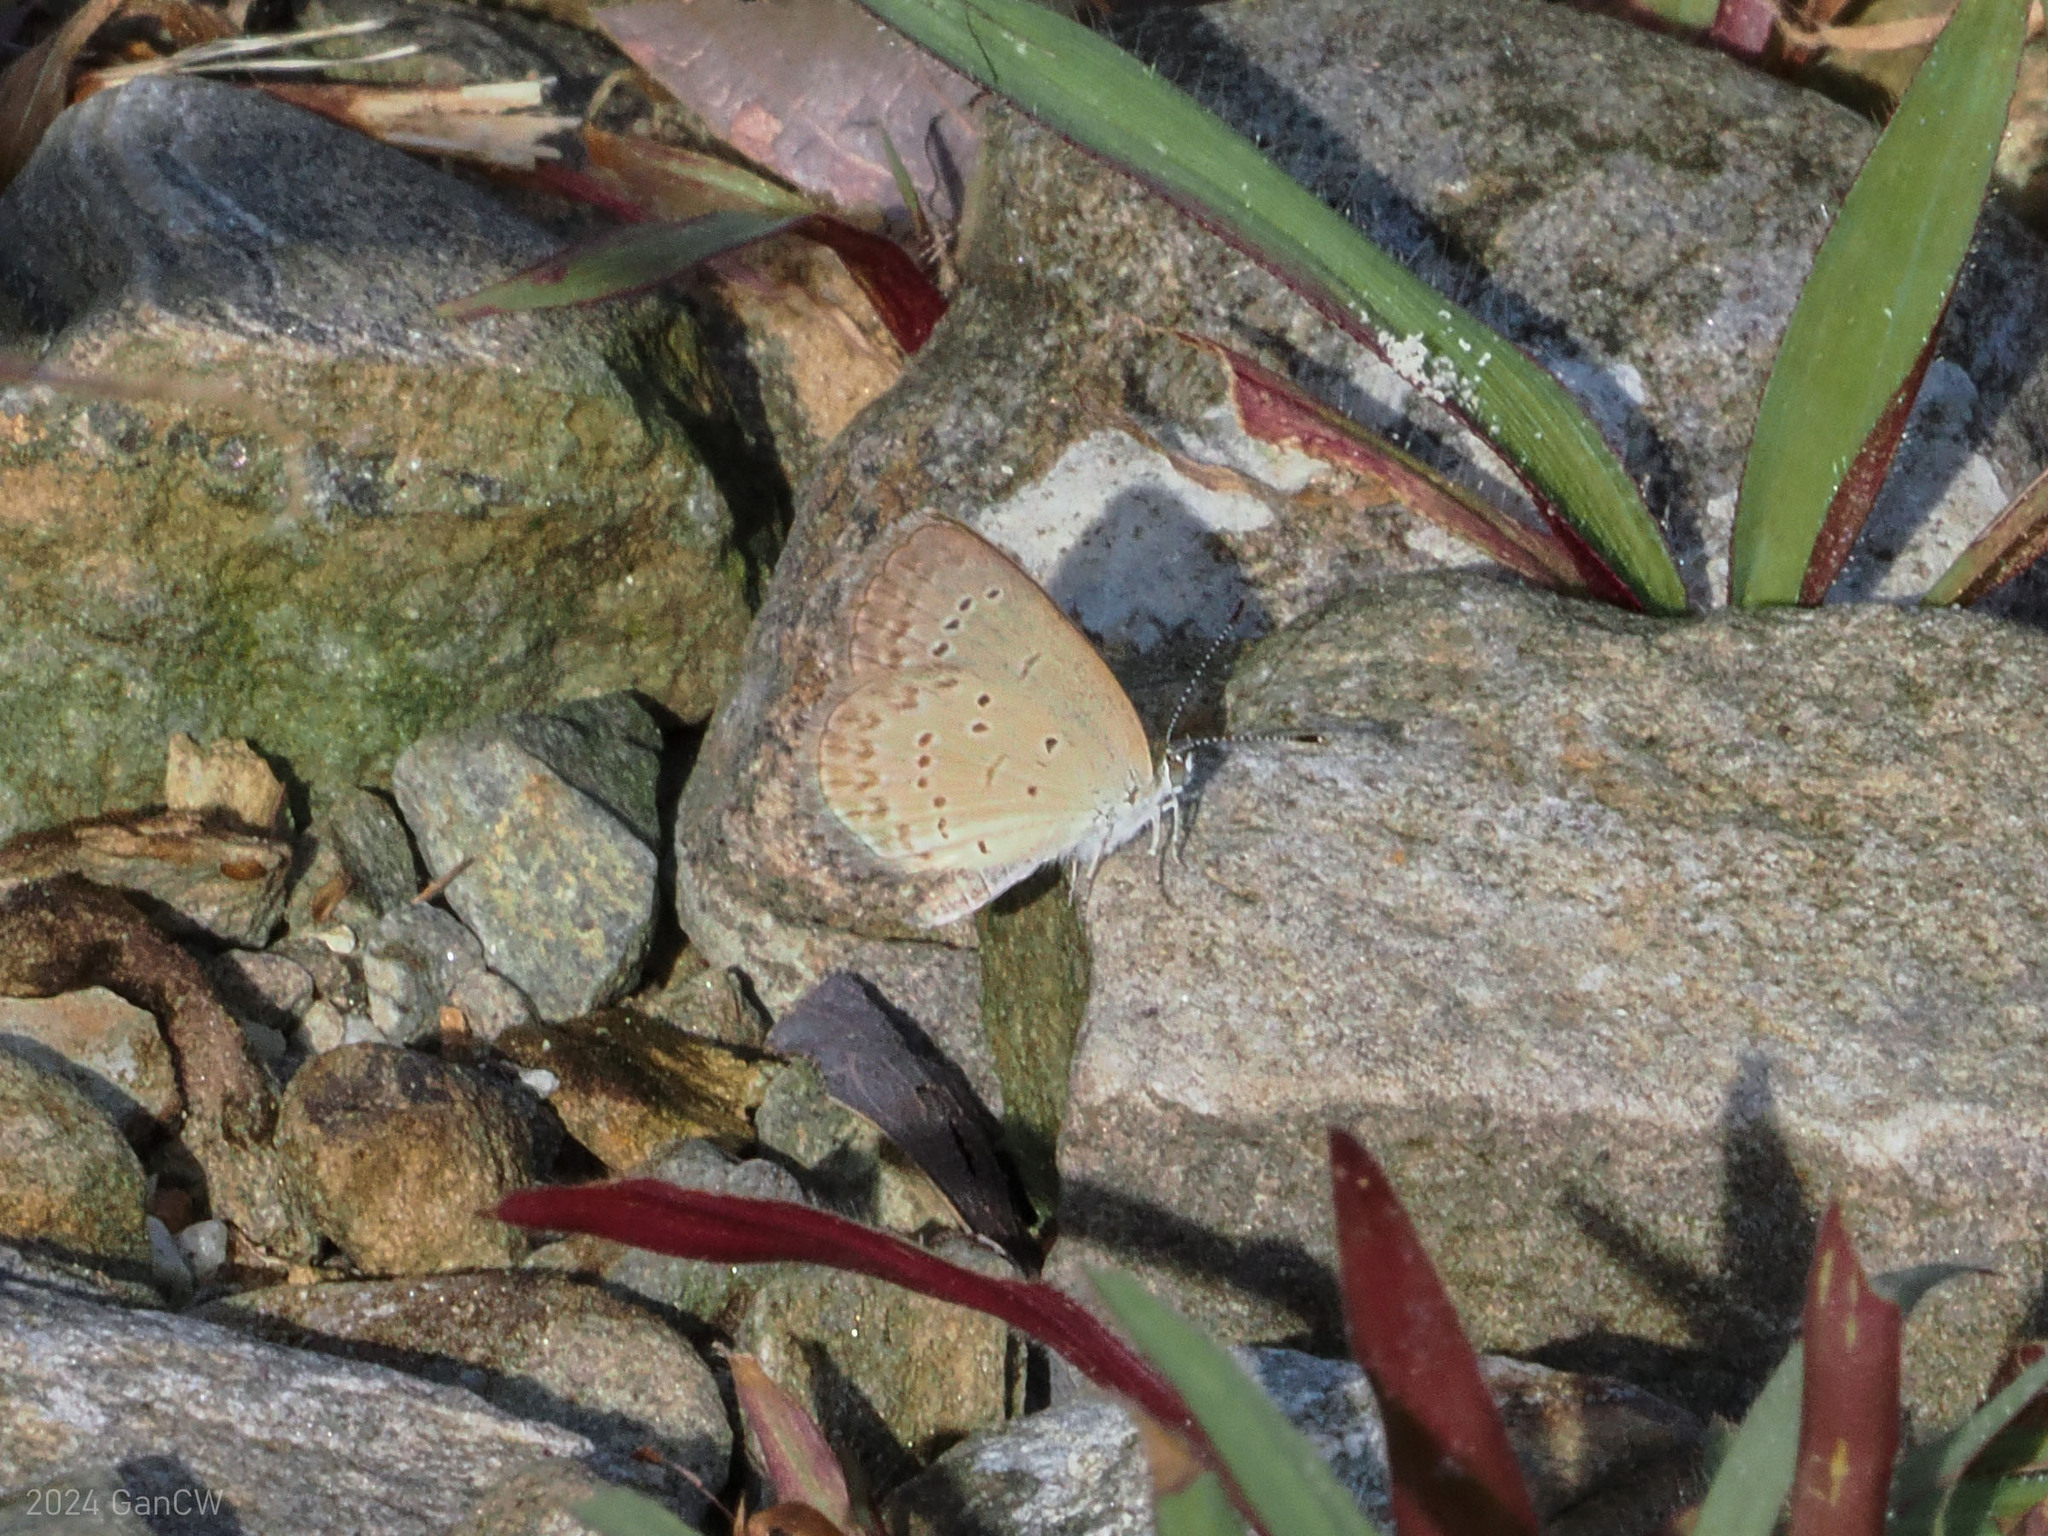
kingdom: Animalia
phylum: Arthropoda
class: Insecta
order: Lepidoptera
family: Lycaenidae
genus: Zizina
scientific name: Zizina otis
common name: Lesser grass blue
